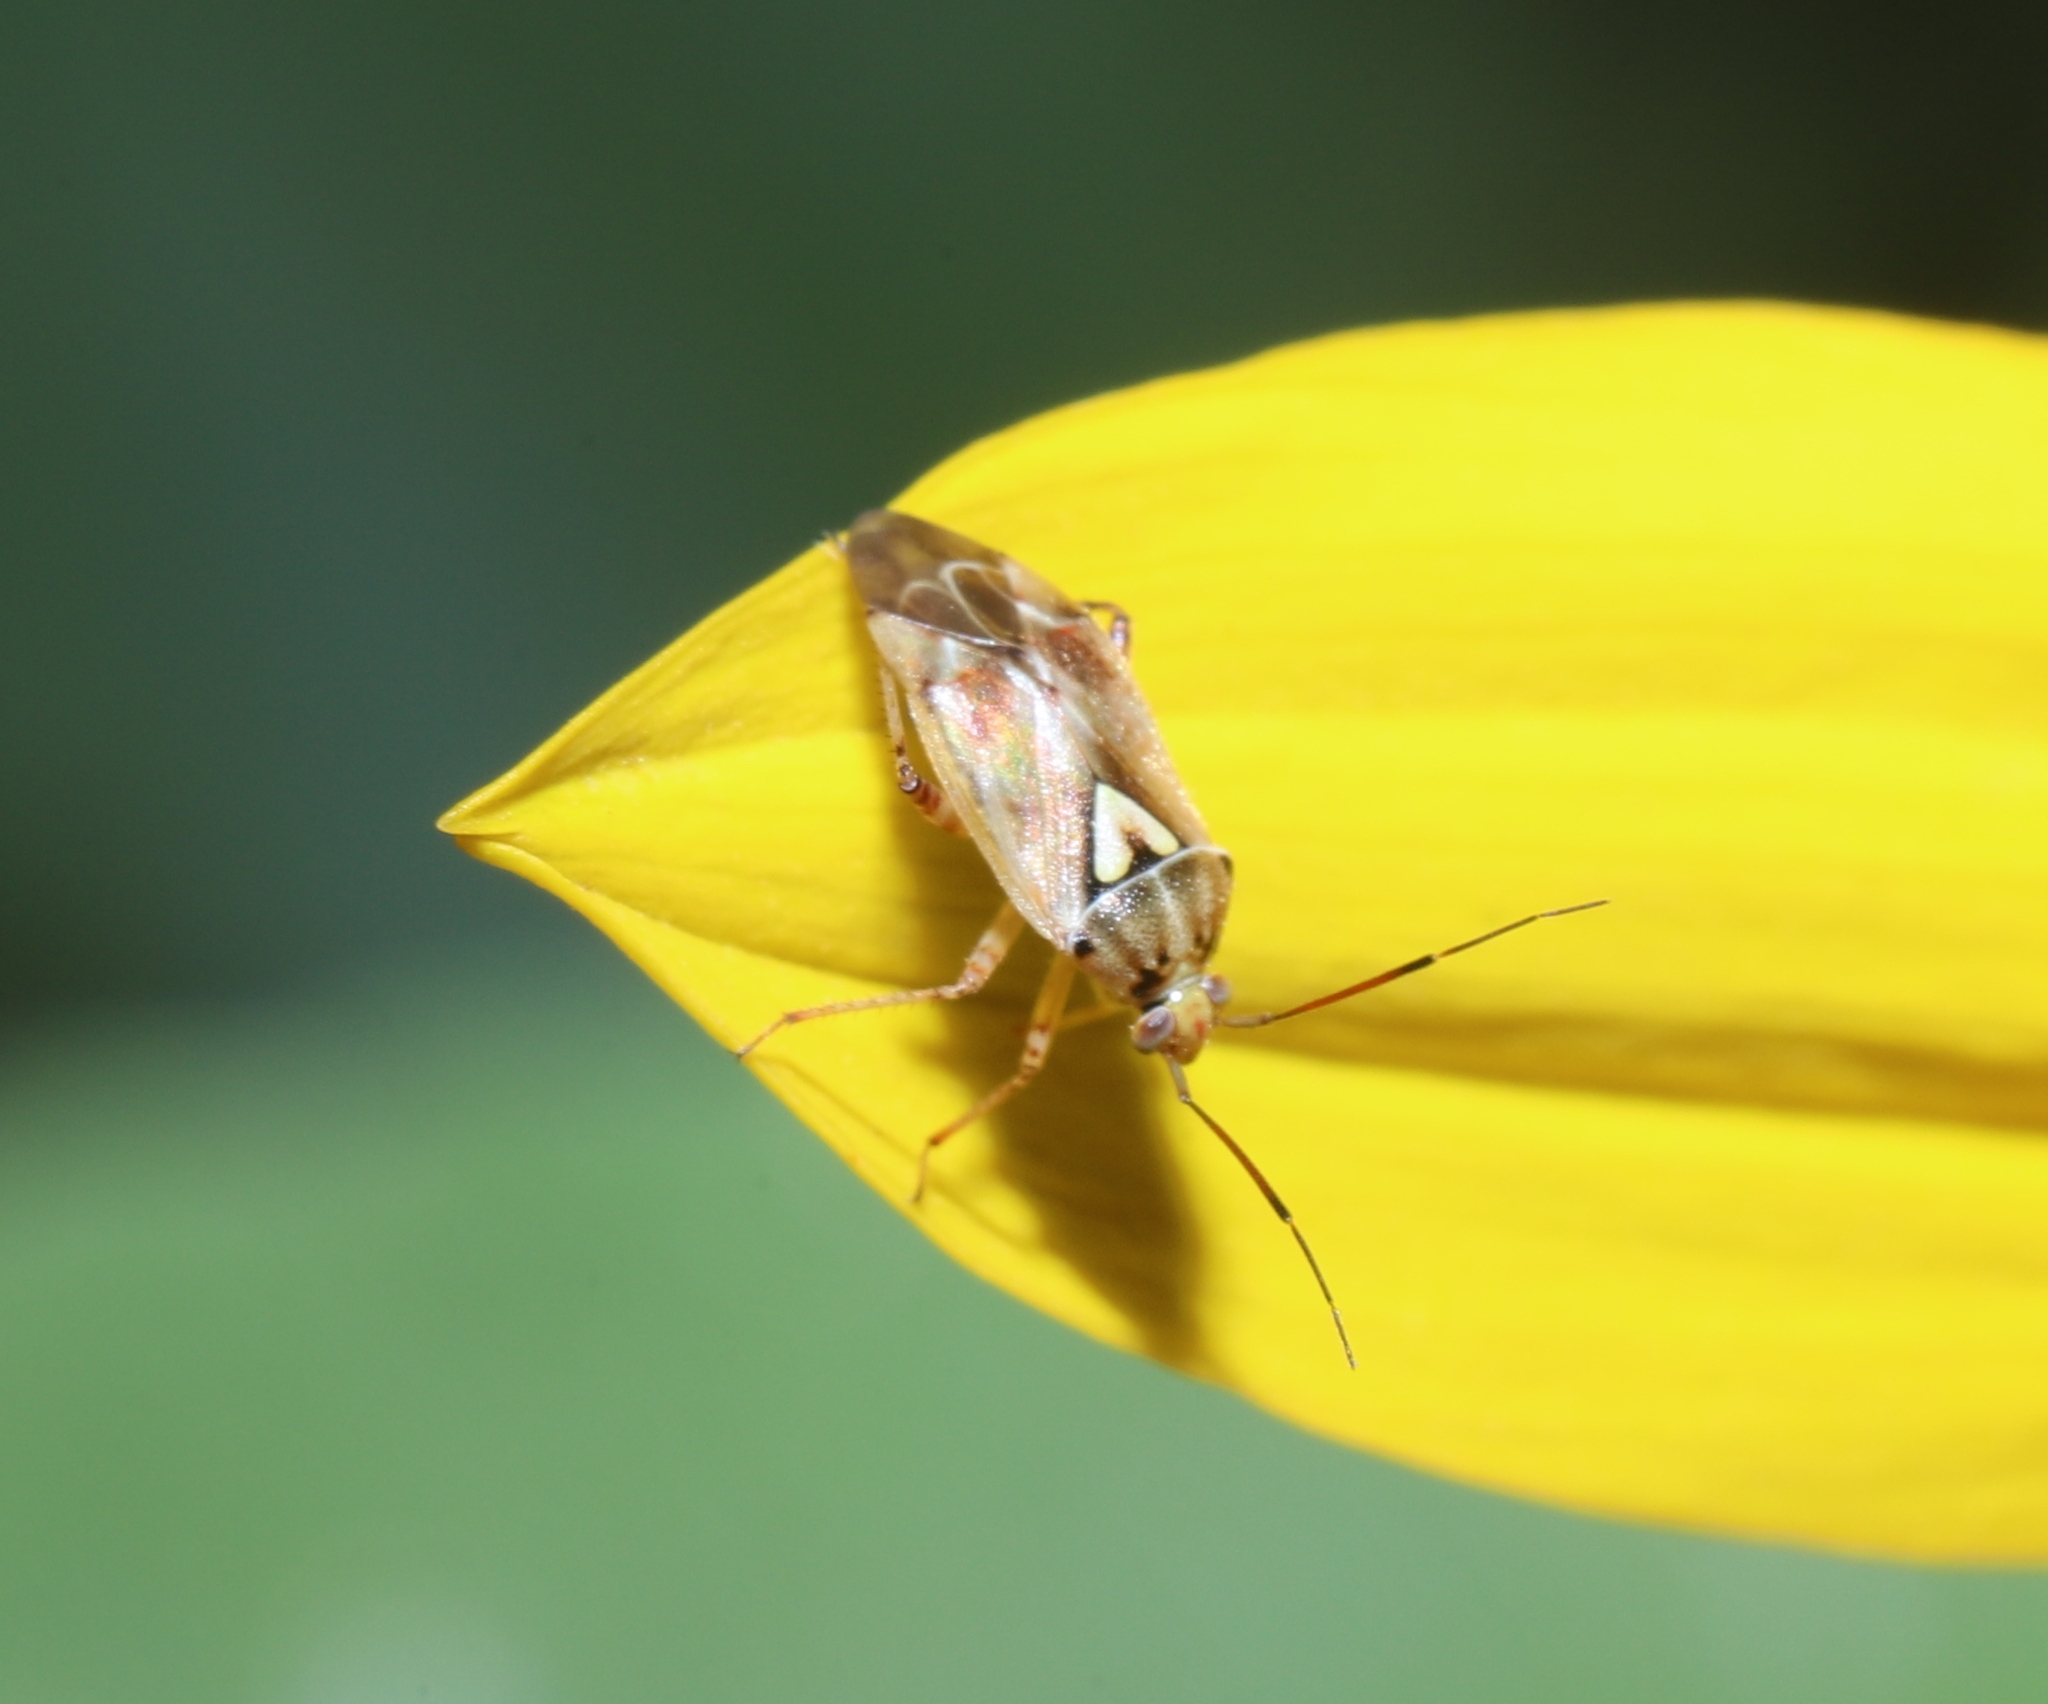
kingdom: Animalia
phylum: Arthropoda
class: Insecta
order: Hemiptera
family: Miridae
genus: Lygus
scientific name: Lygus lineolaris
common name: North american tarnished plant bug
